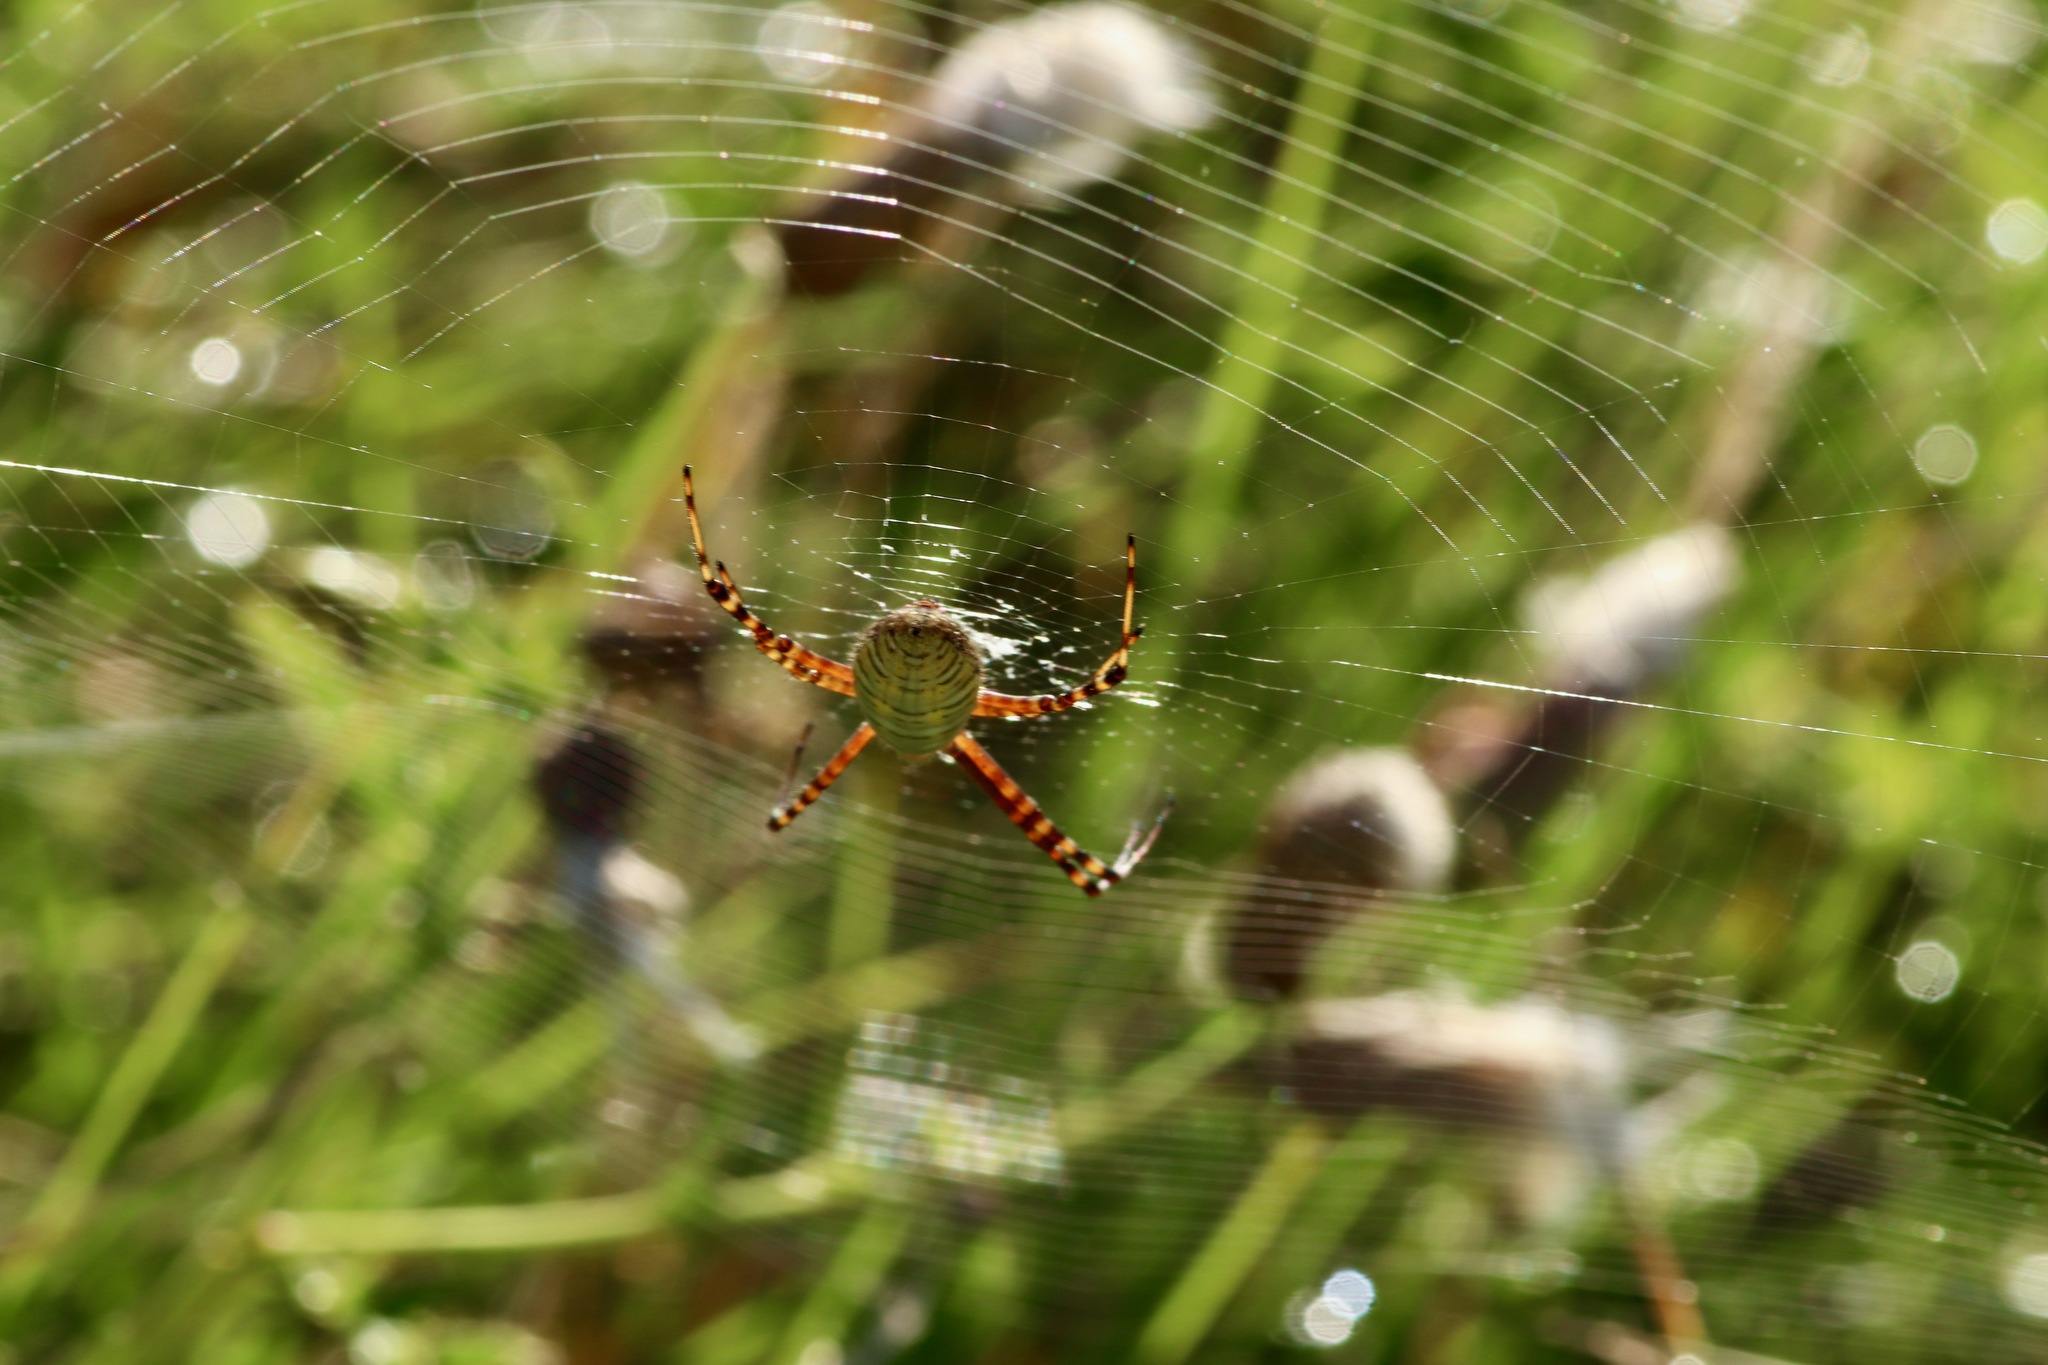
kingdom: Animalia
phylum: Arthropoda
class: Arachnida
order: Araneae
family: Araneidae
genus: Argiope
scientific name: Argiope trifasciata
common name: Banded garden spider
